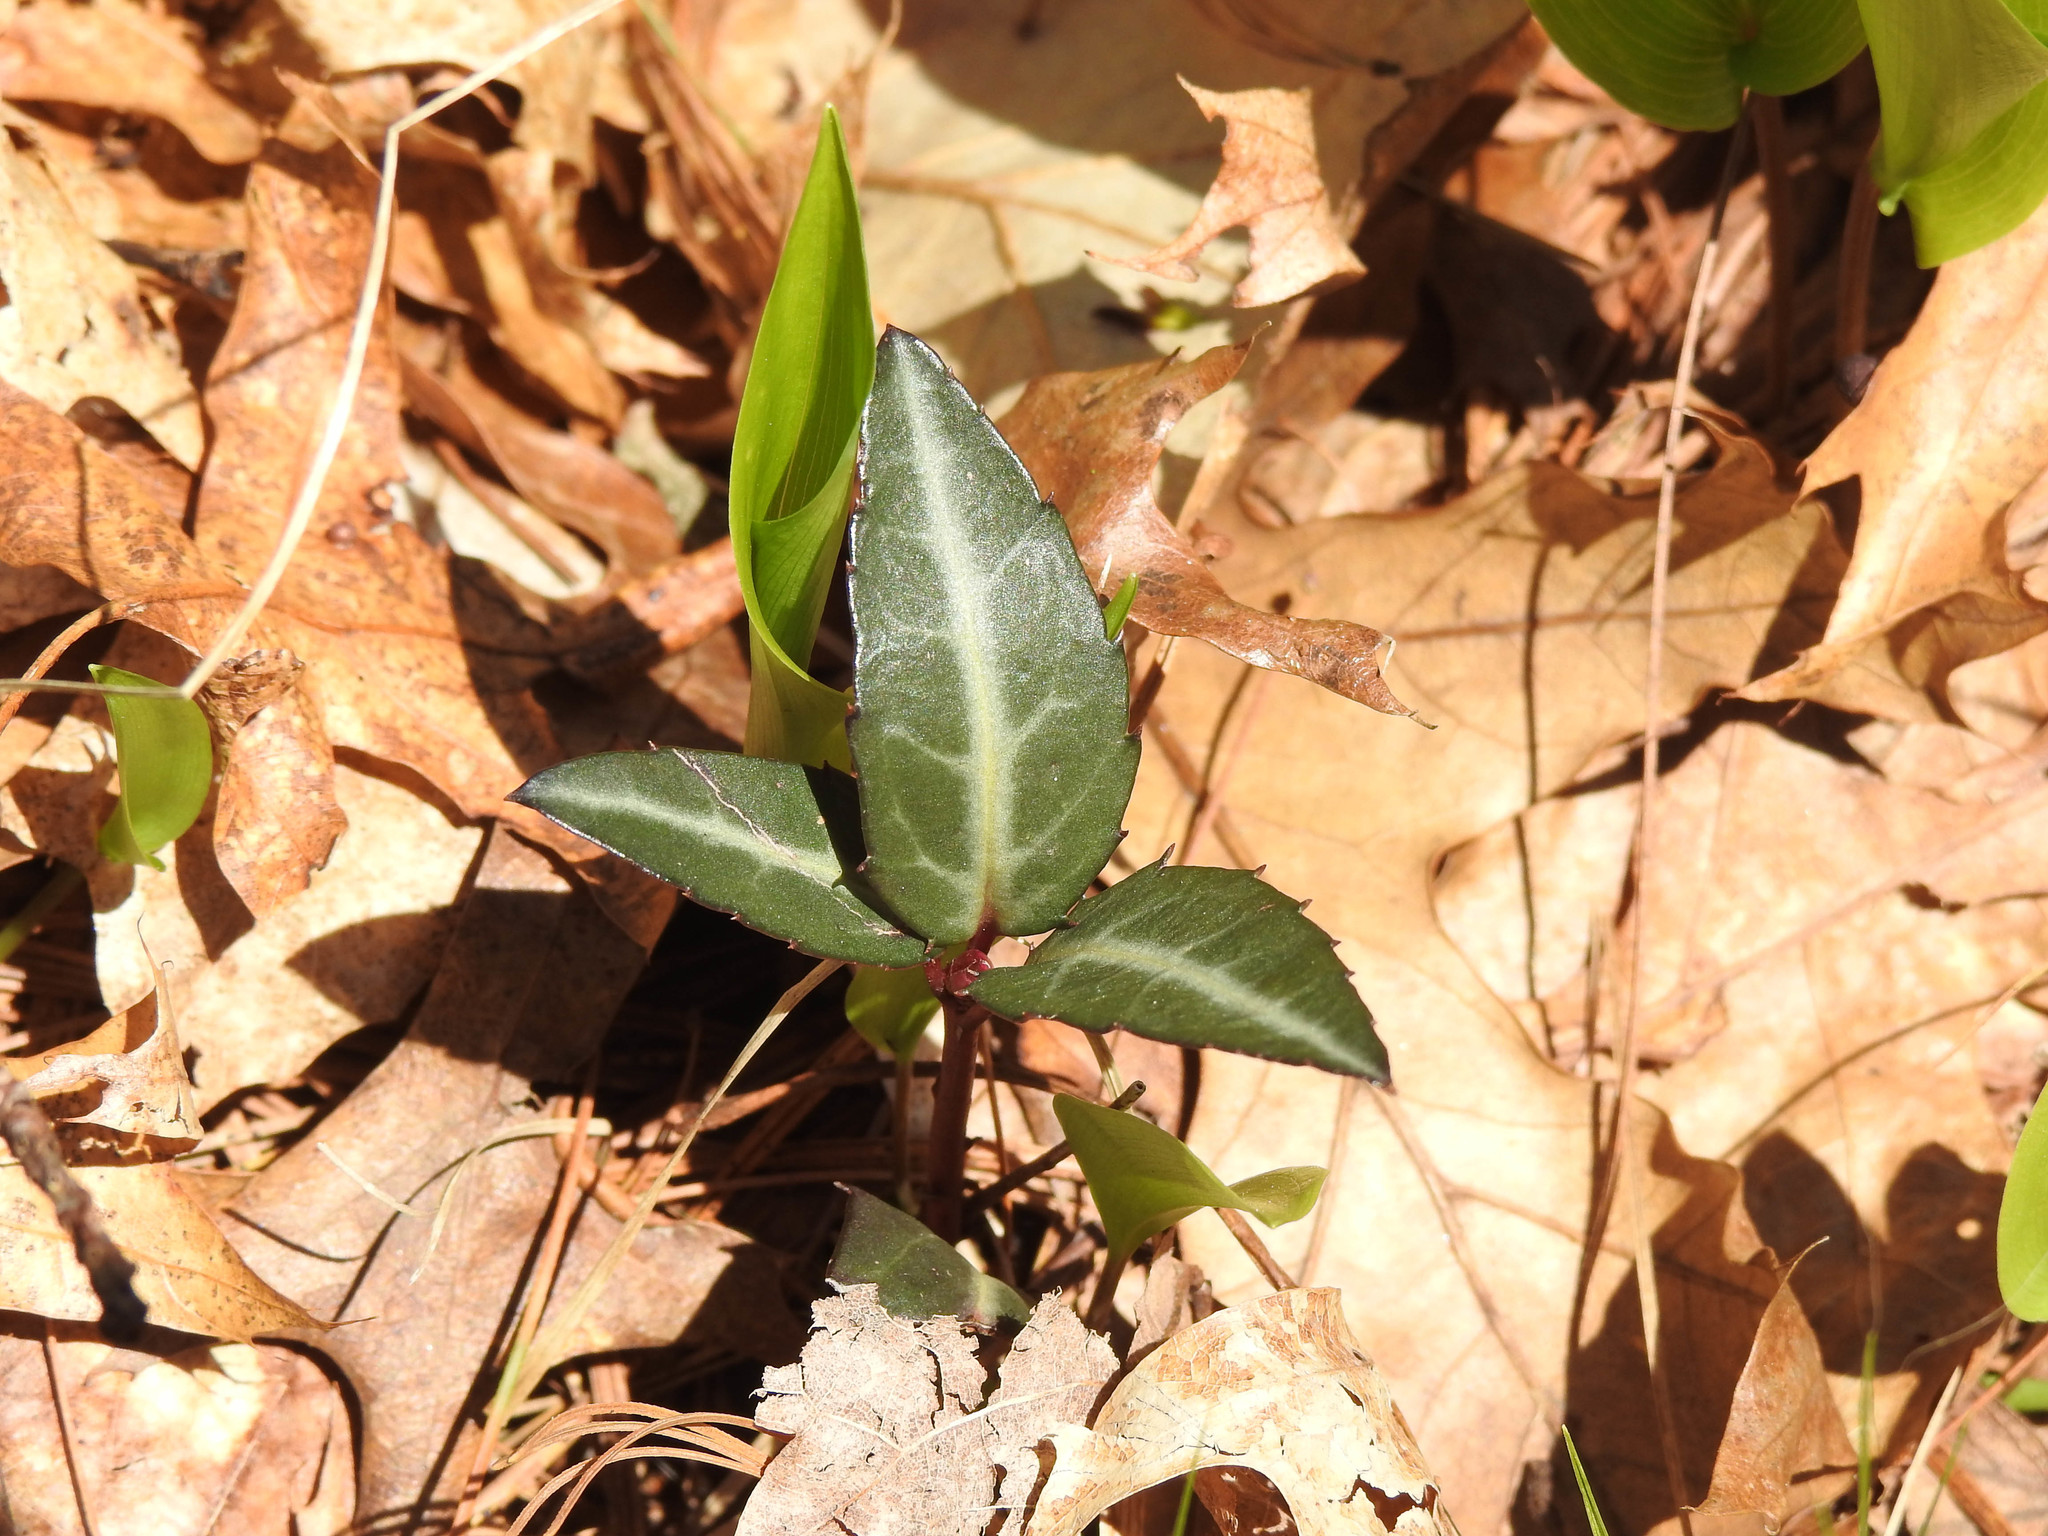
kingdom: Plantae
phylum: Tracheophyta
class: Magnoliopsida
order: Ericales
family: Ericaceae
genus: Chimaphila
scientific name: Chimaphila maculata
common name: Spotted pipsissewa
